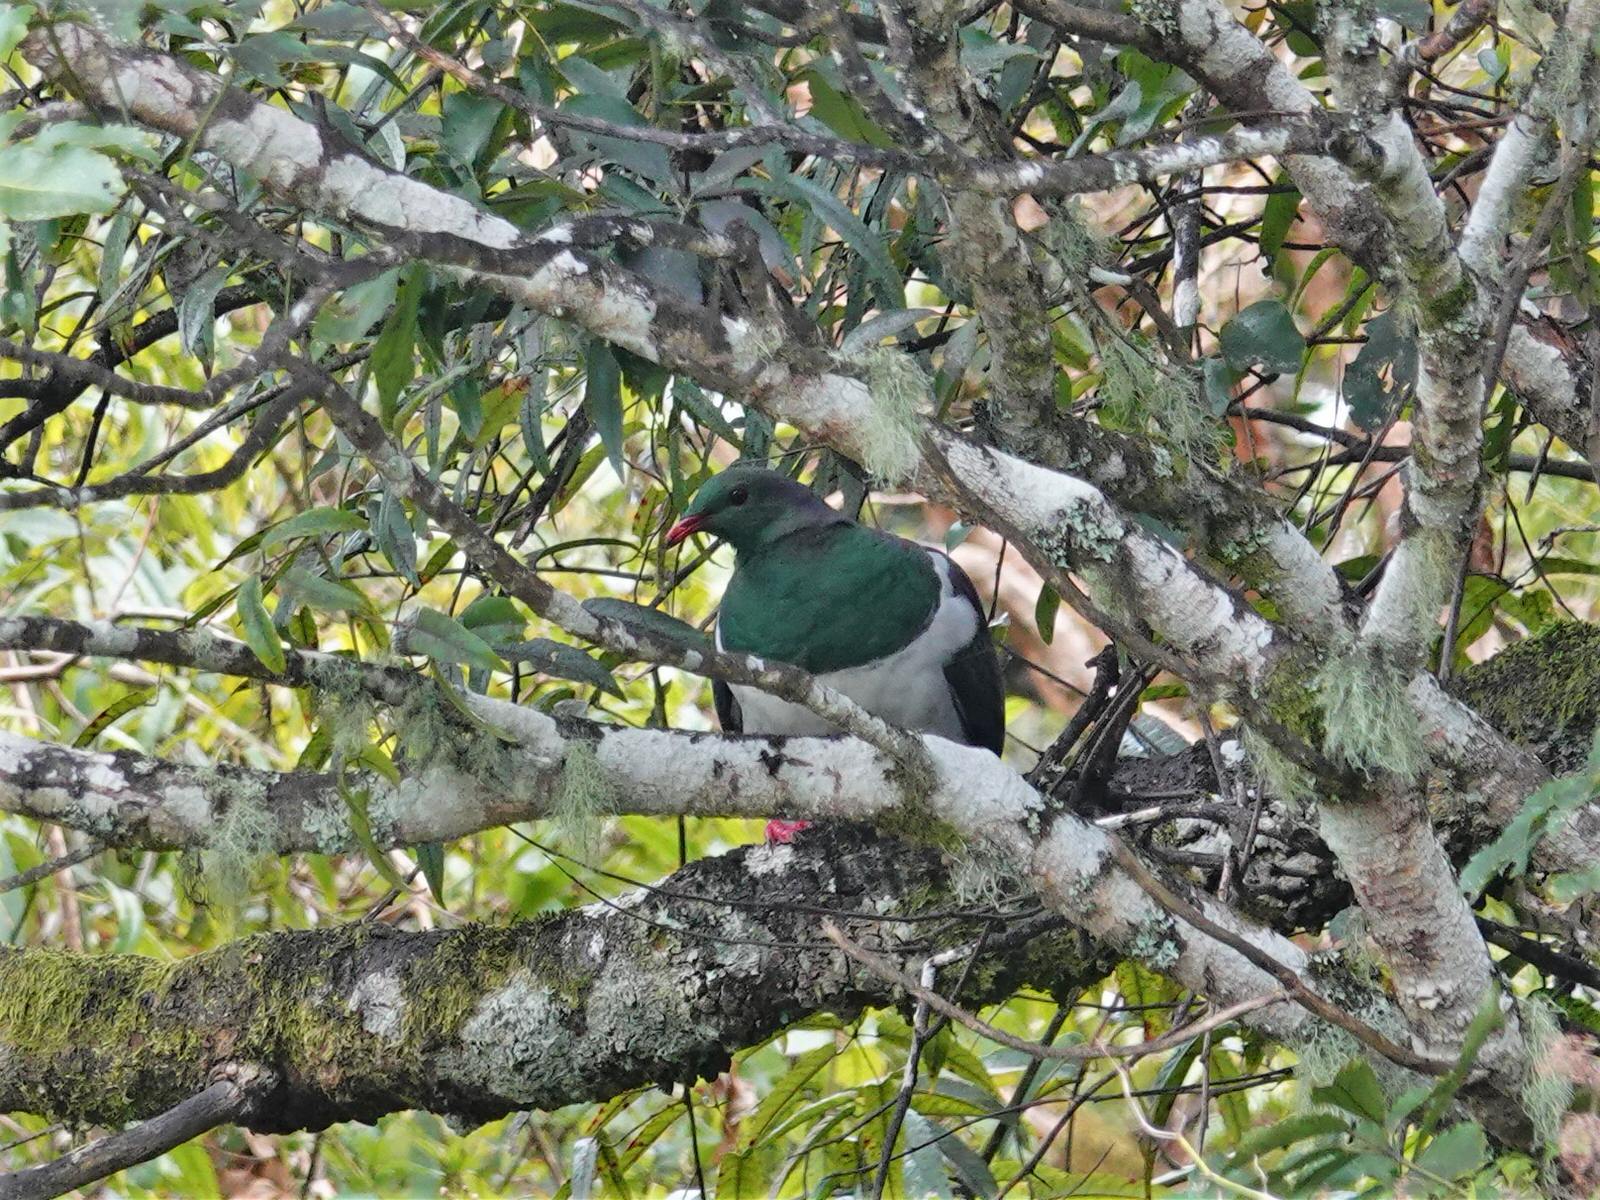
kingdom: Animalia
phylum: Chordata
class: Aves
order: Columbiformes
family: Columbidae
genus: Hemiphaga
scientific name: Hemiphaga novaeseelandiae
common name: New zealand pigeon
